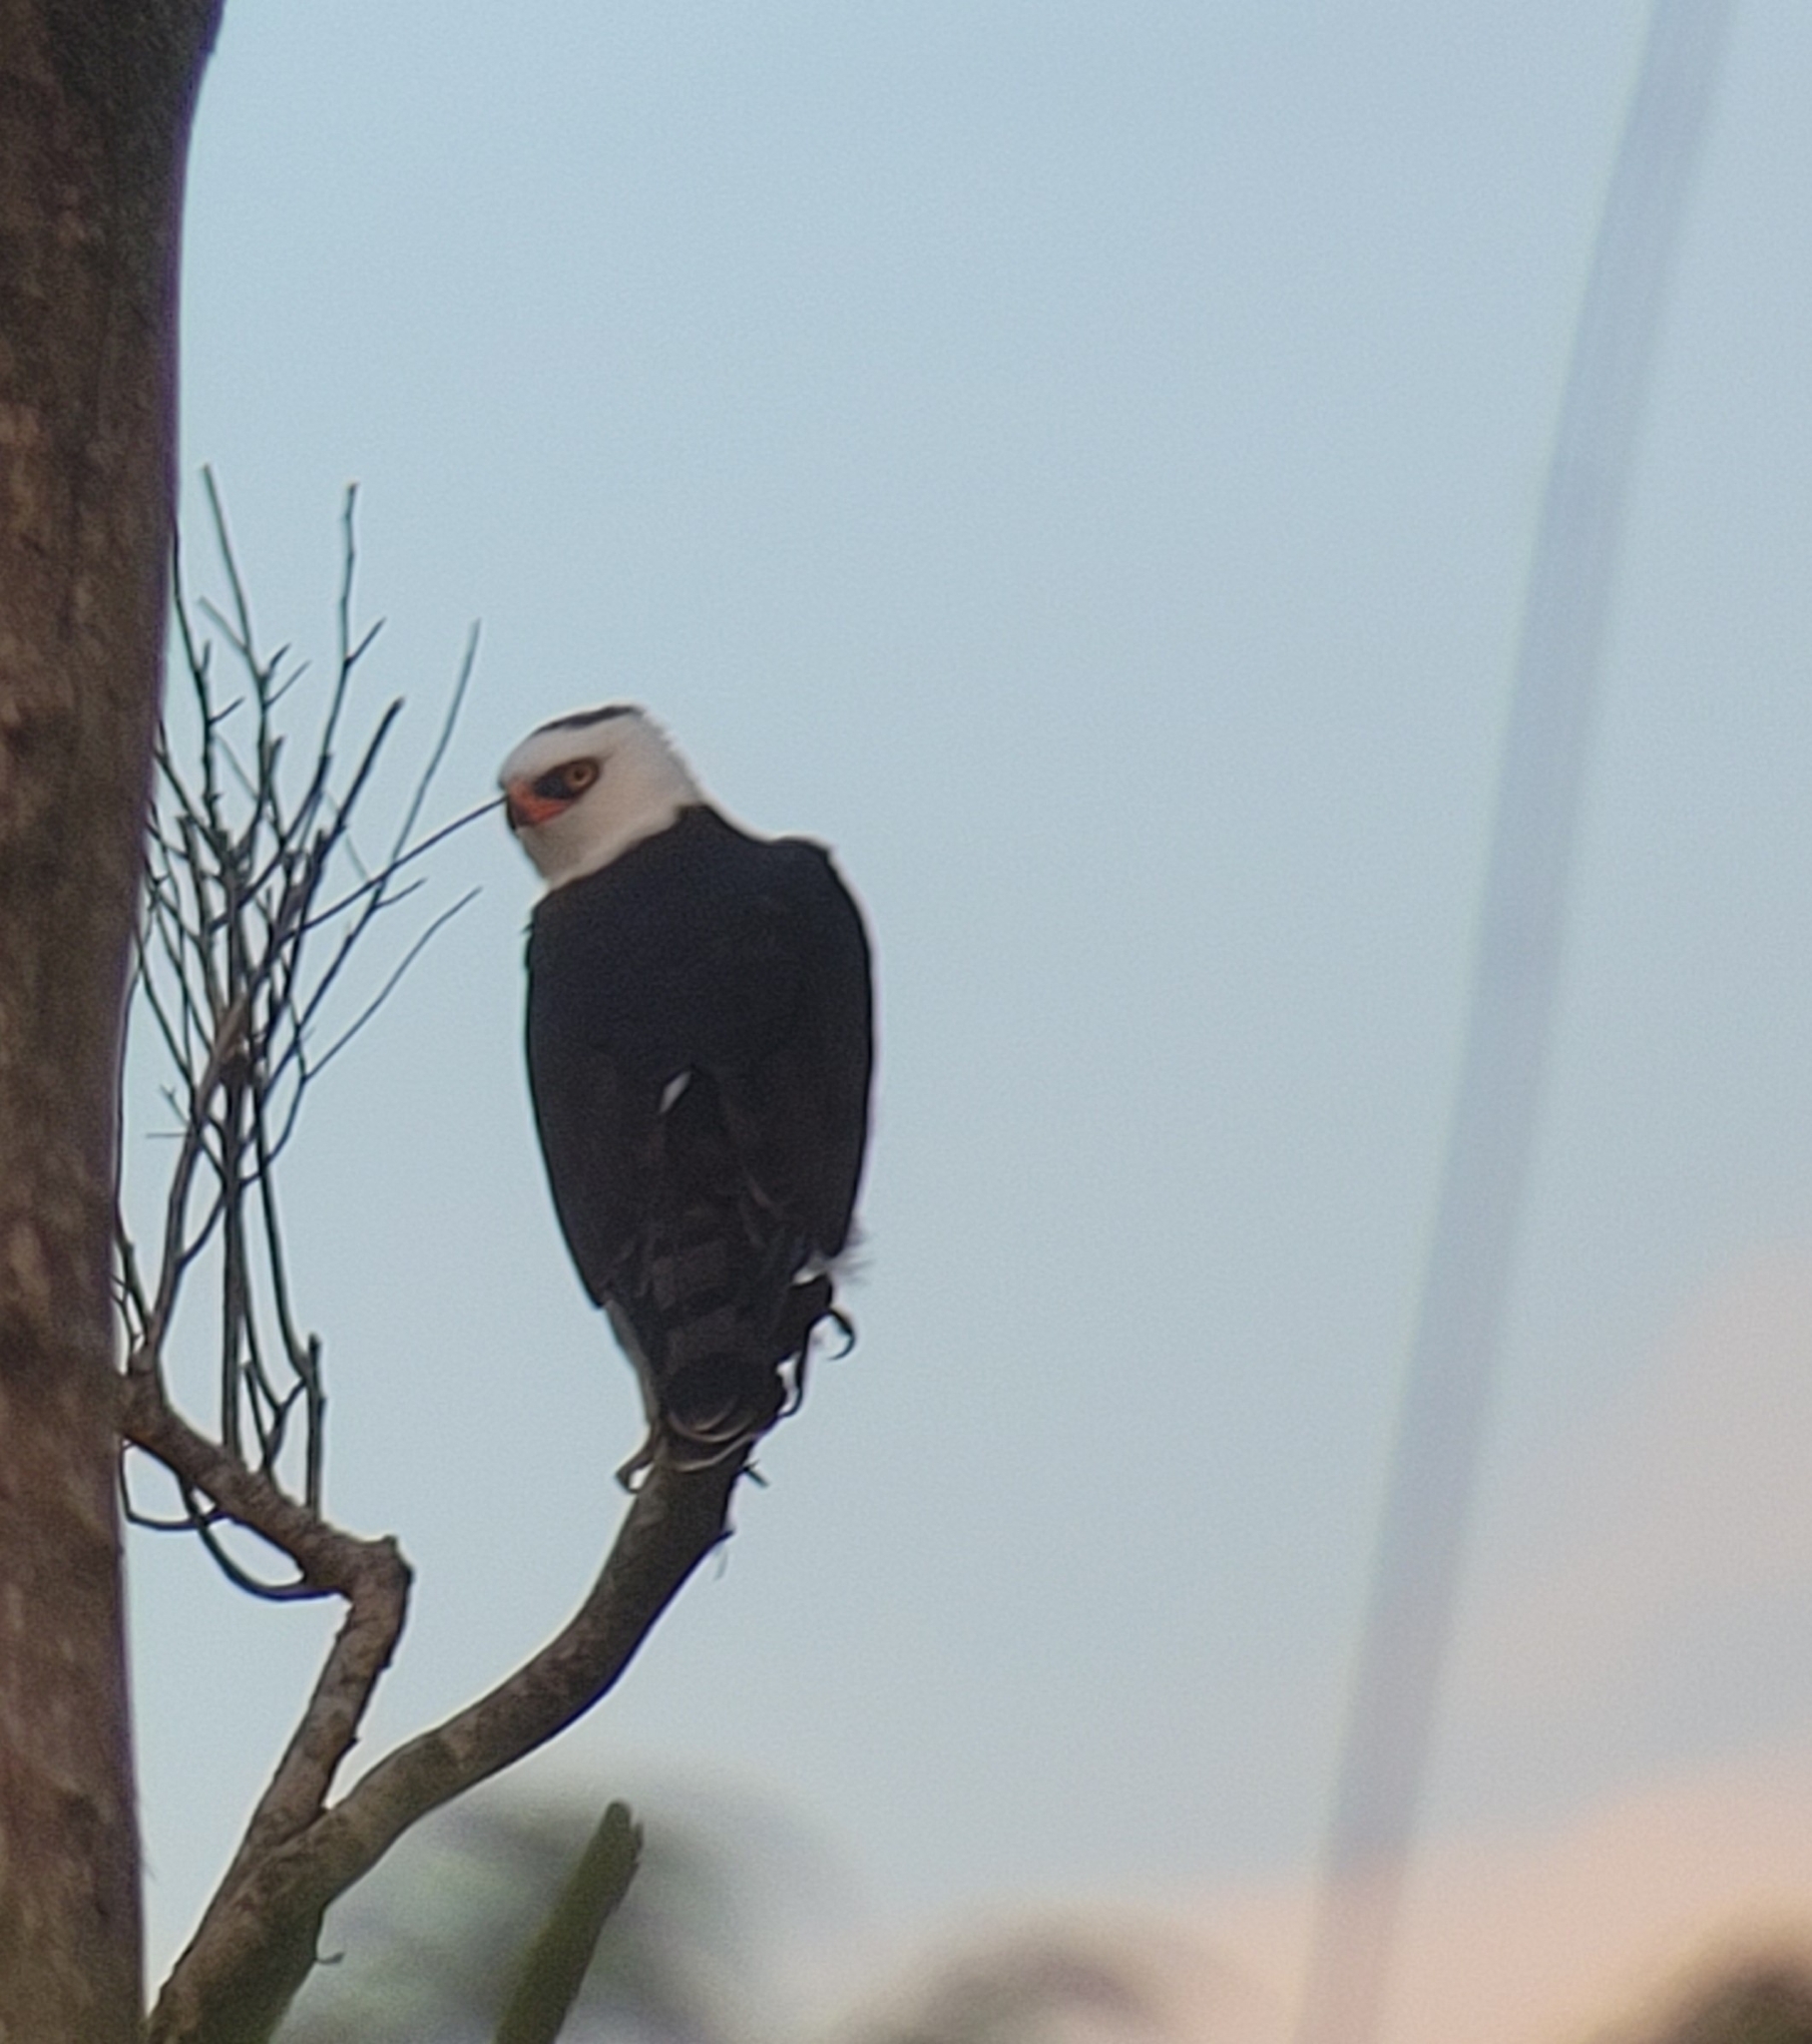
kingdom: Animalia
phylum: Chordata
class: Aves
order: Accipitriformes
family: Accipitridae
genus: Spizaetus
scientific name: Spizaetus melanoleucus
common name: Black-and-white hawk-eagle
